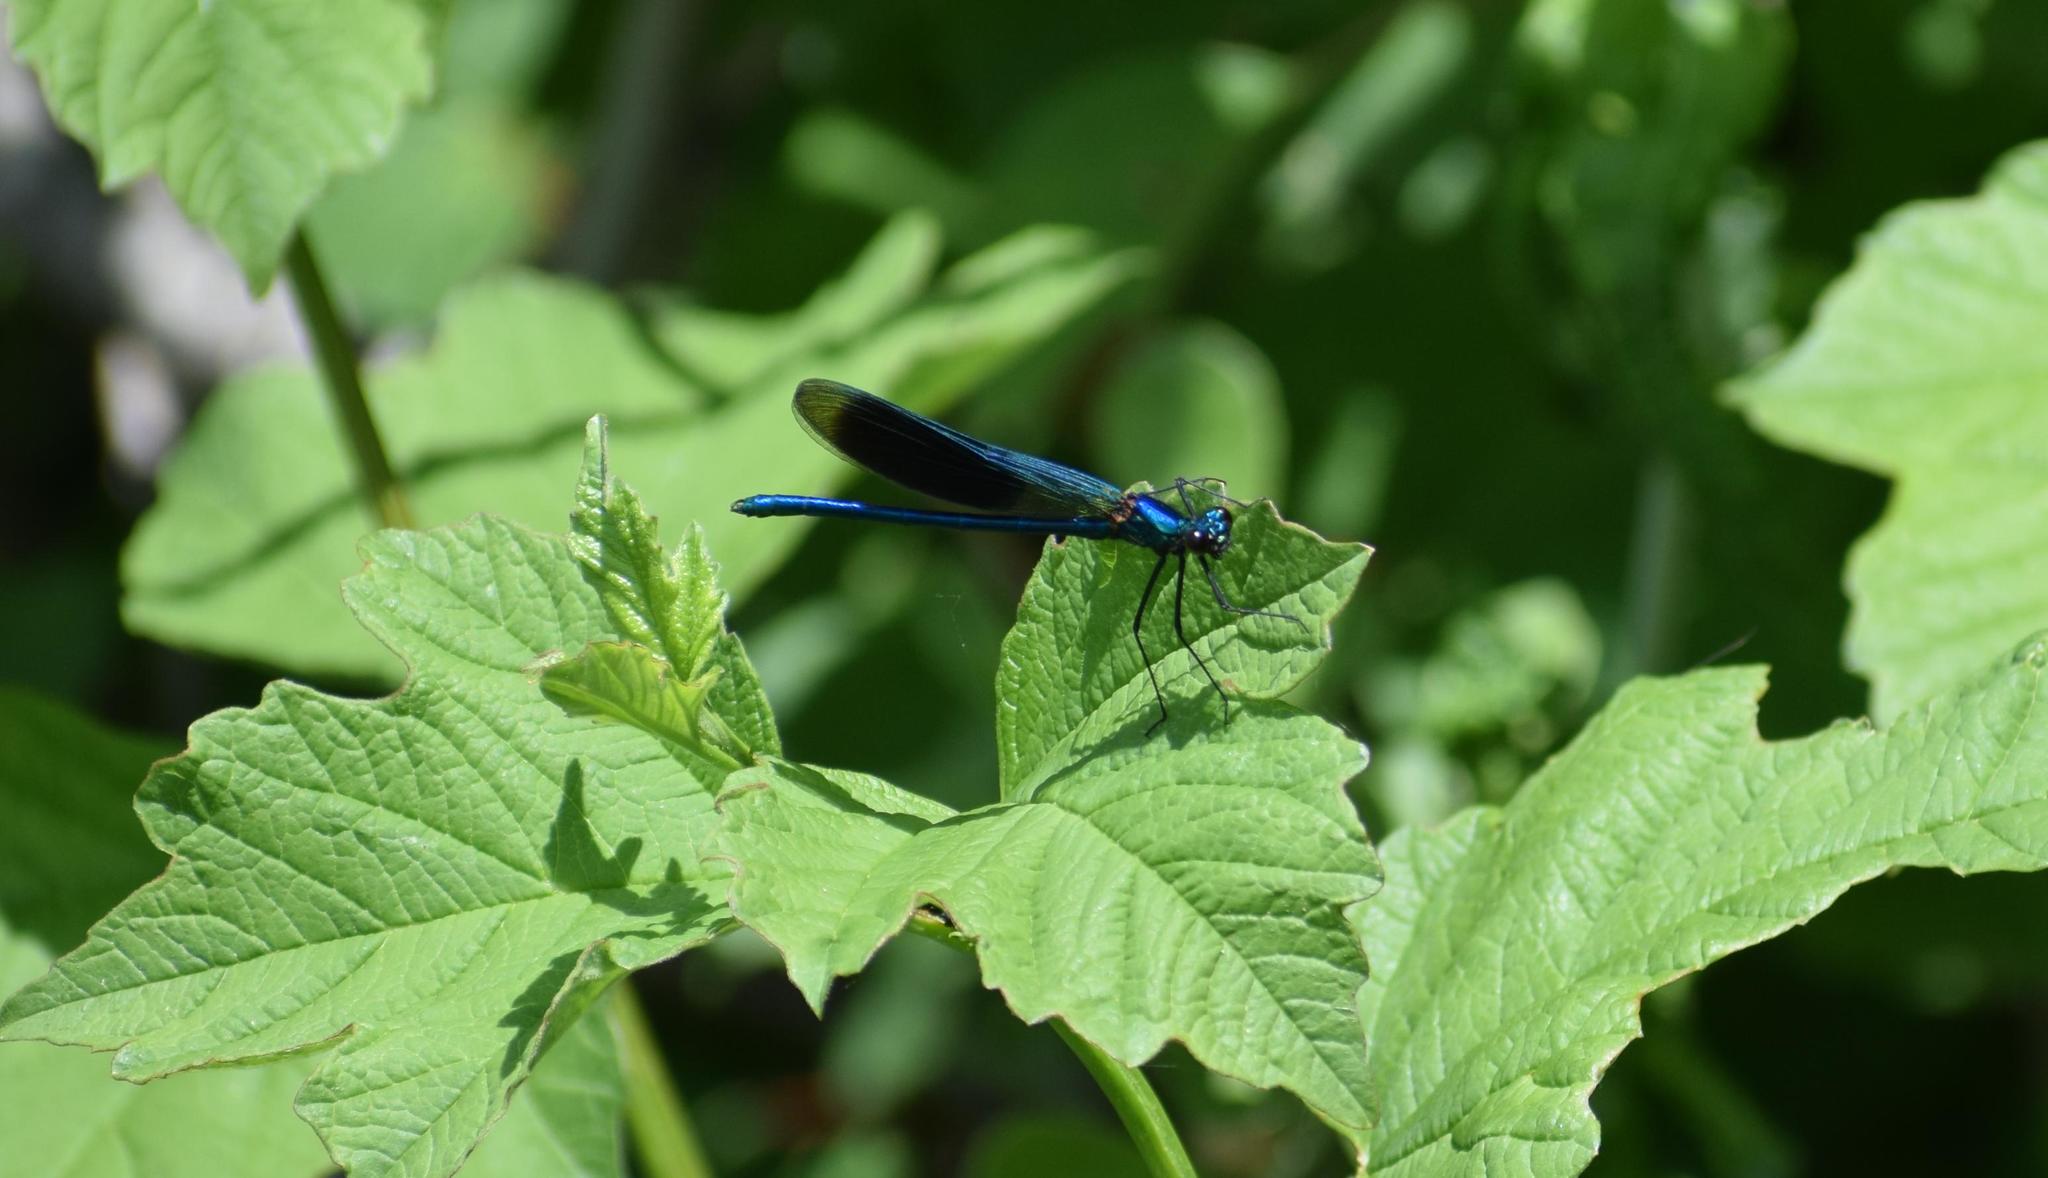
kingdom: Animalia
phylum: Arthropoda
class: Insecta
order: Odonata
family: Calopterygidae
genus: Calopteryx
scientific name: Calopteryx splendens
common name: Banded demoiselle
